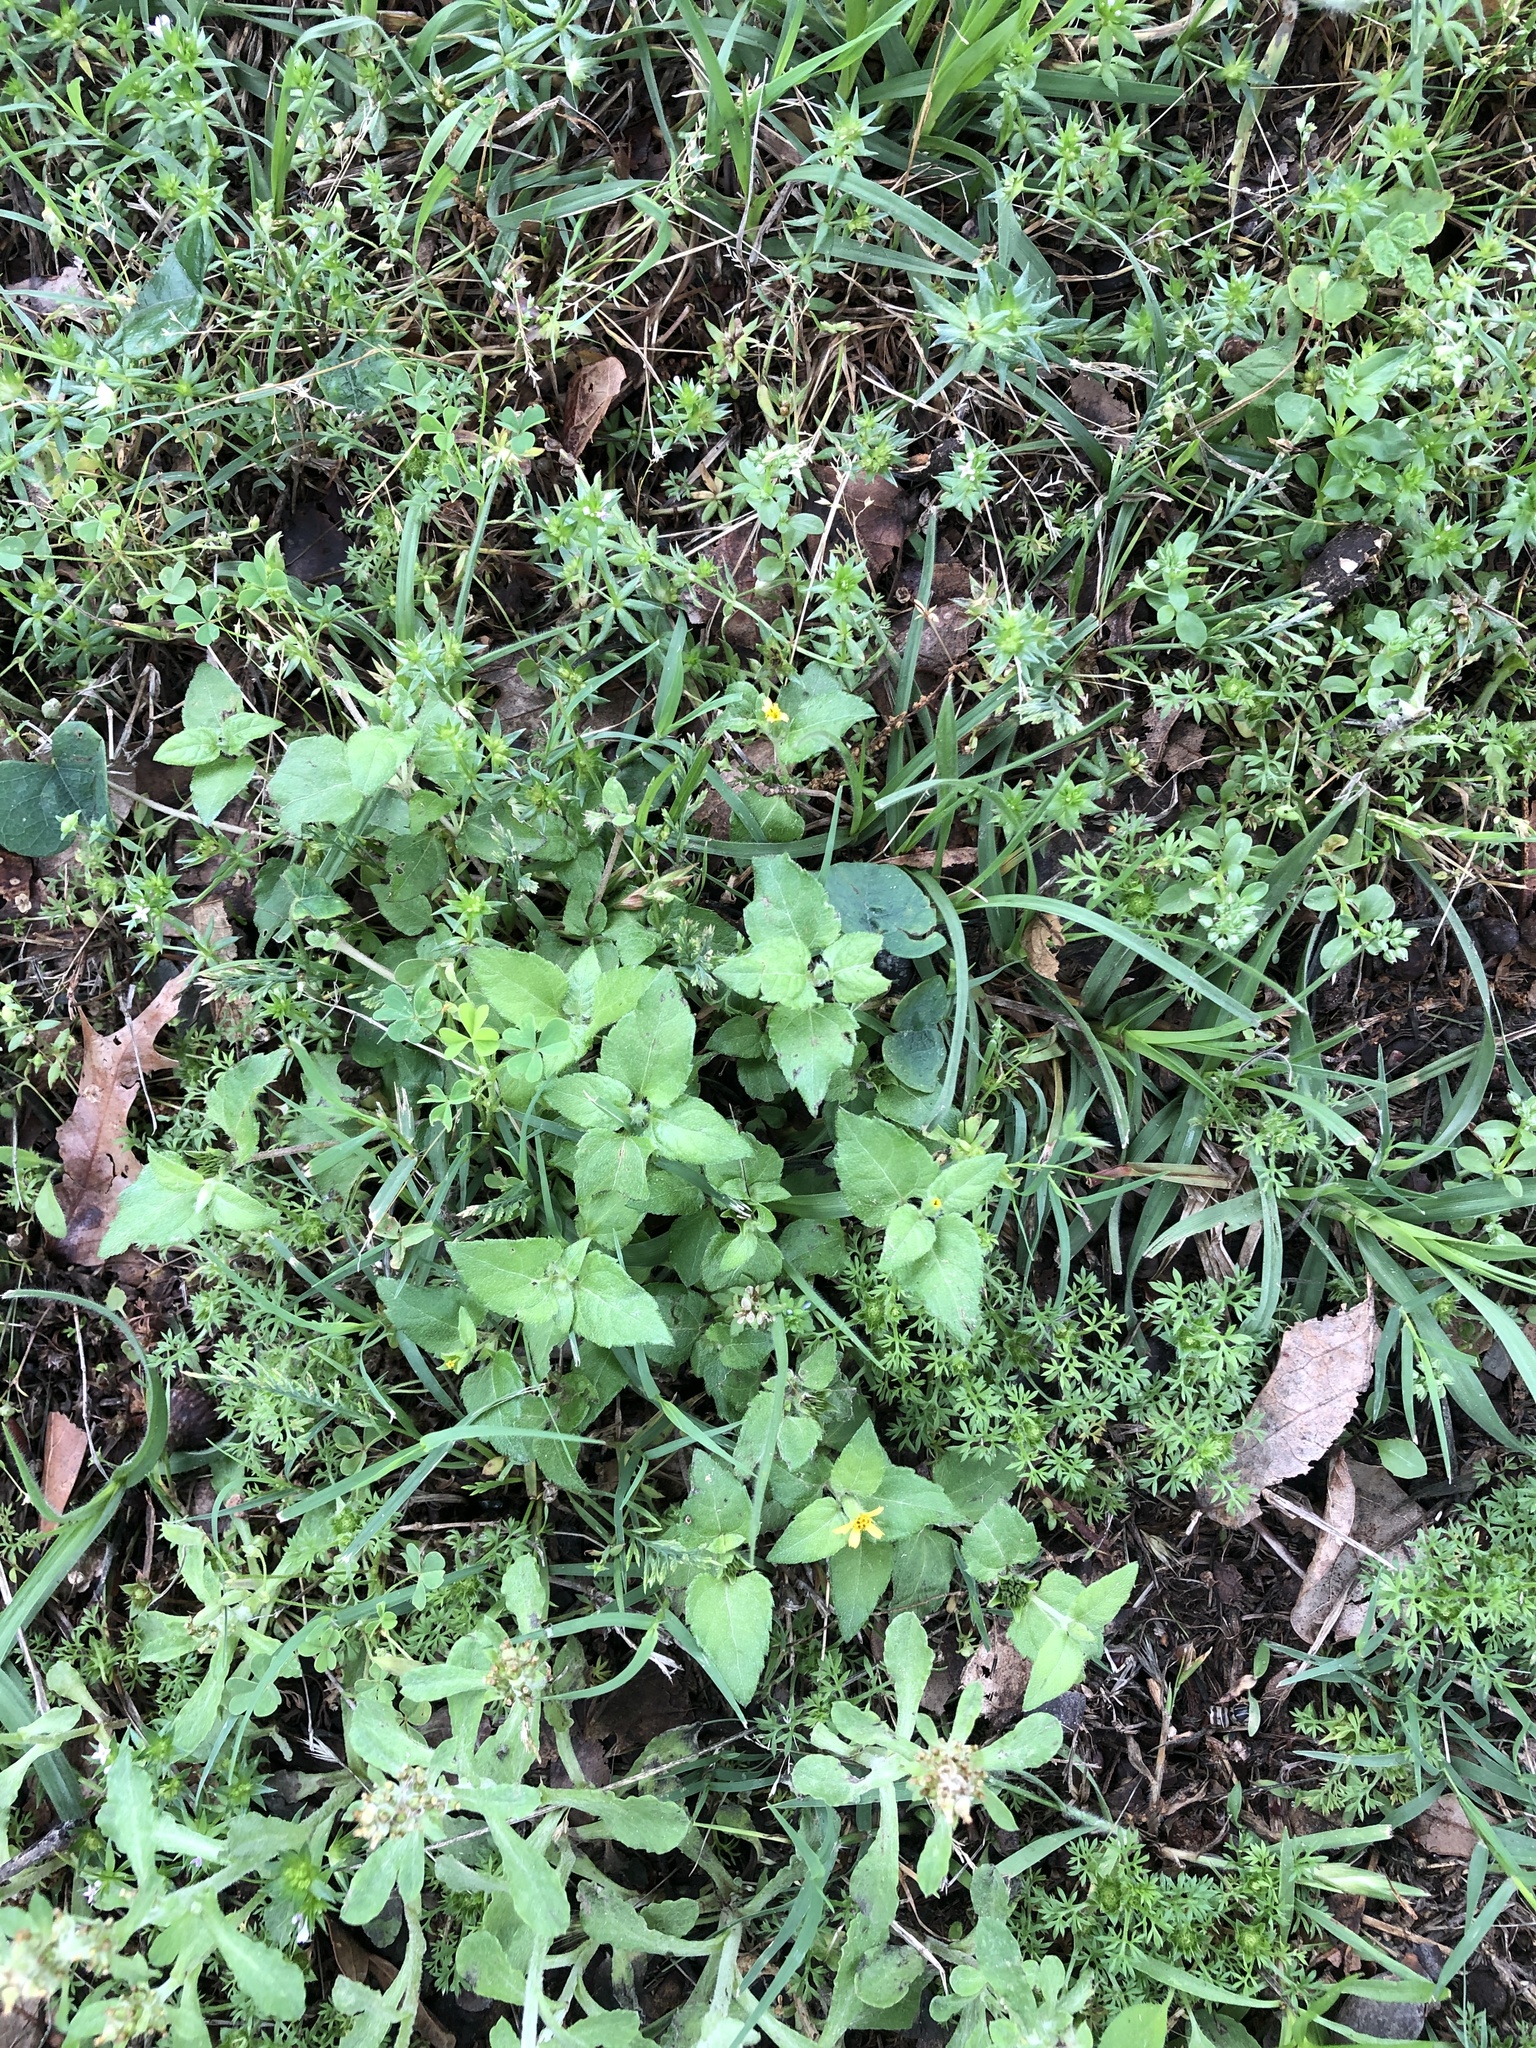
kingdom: Plantae
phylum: Tracheophyta
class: Magnoliopsida
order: Asterales
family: Asteraceae
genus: Calyptocarpus
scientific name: Calyptocarpus vialis
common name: Straggler daisy
